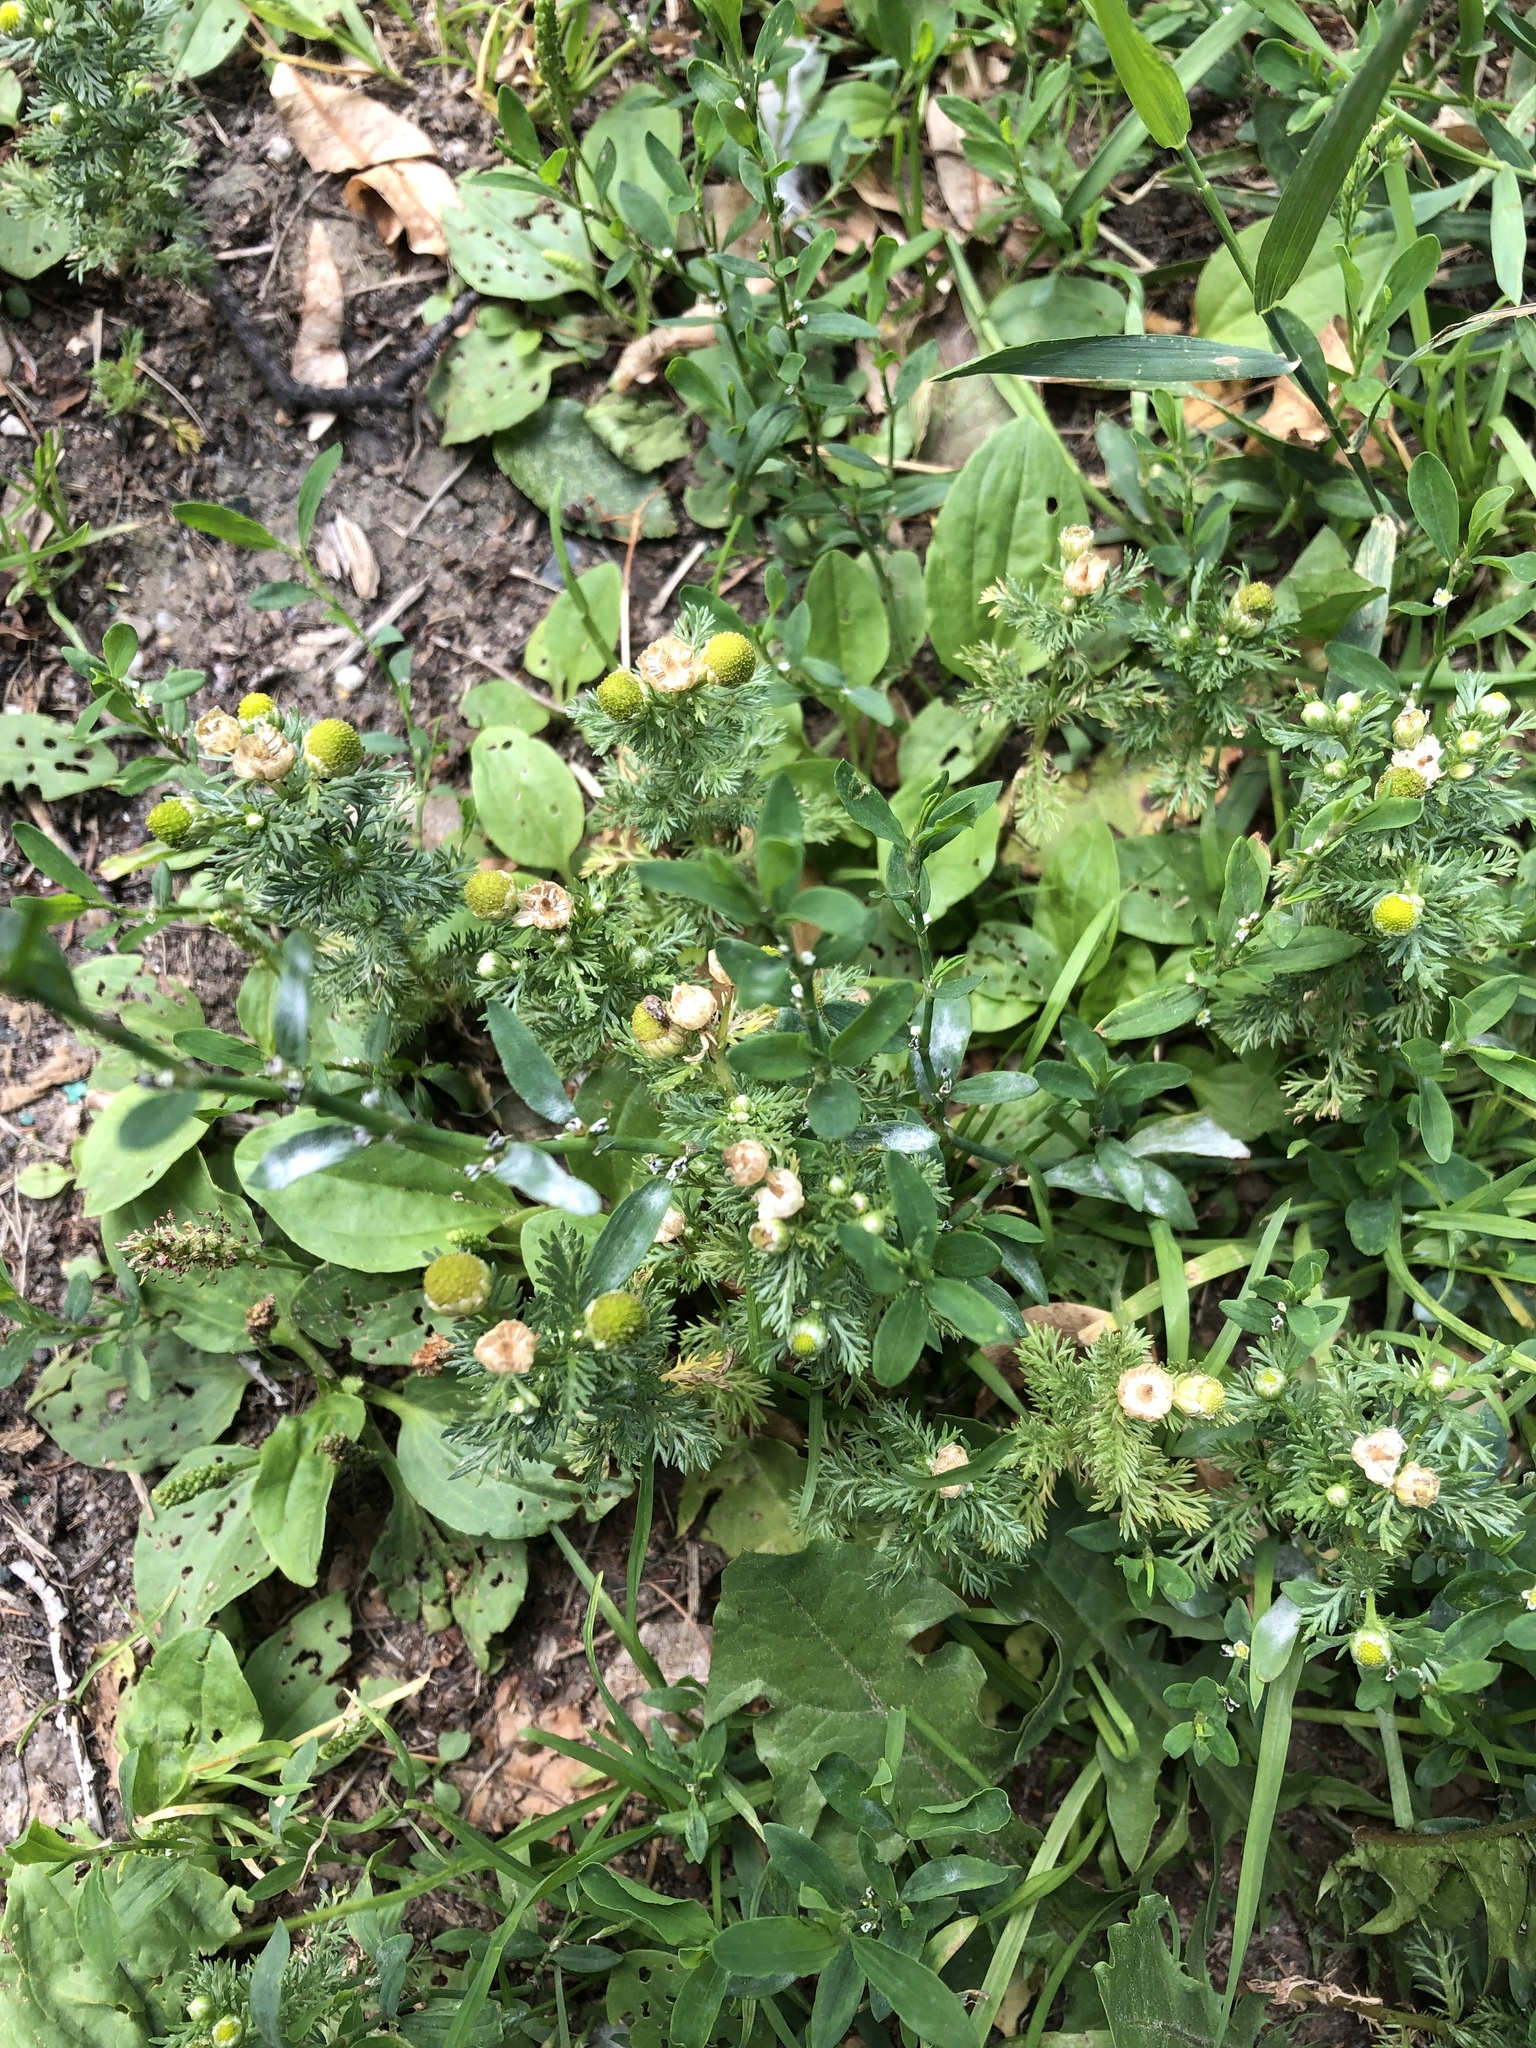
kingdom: Plantae
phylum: Tracheophyta
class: Magnoliopsida
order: Asterales
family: Asteraceae
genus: Matricaria
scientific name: Matricaria discoidea
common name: Disc mayweed
